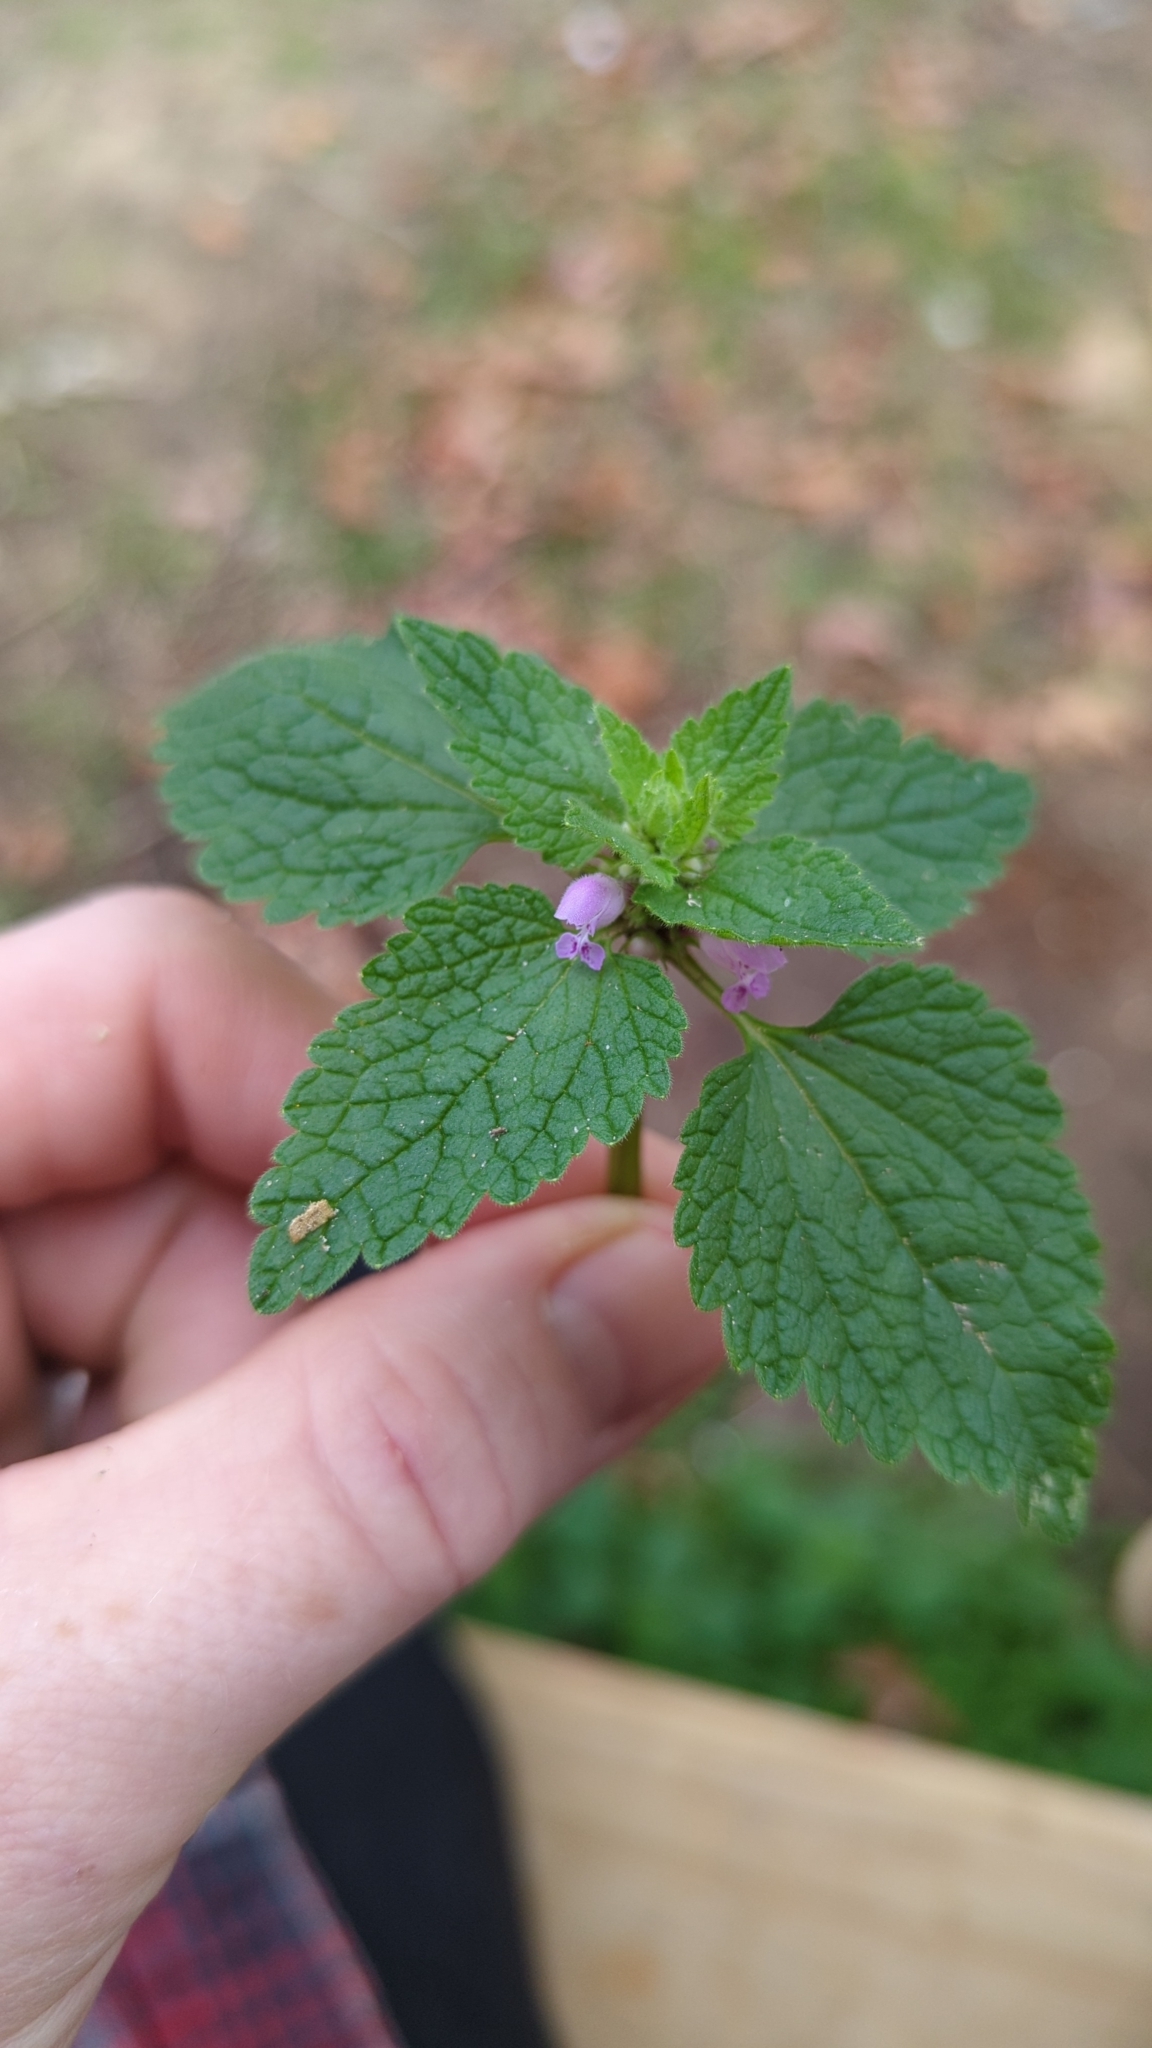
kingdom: Plantae
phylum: Tracheophyta
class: Magnoliopsida
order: Lamiales
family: Lamiaceae
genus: Lamium
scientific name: Lamium purpureum
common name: Red dead-nettle
